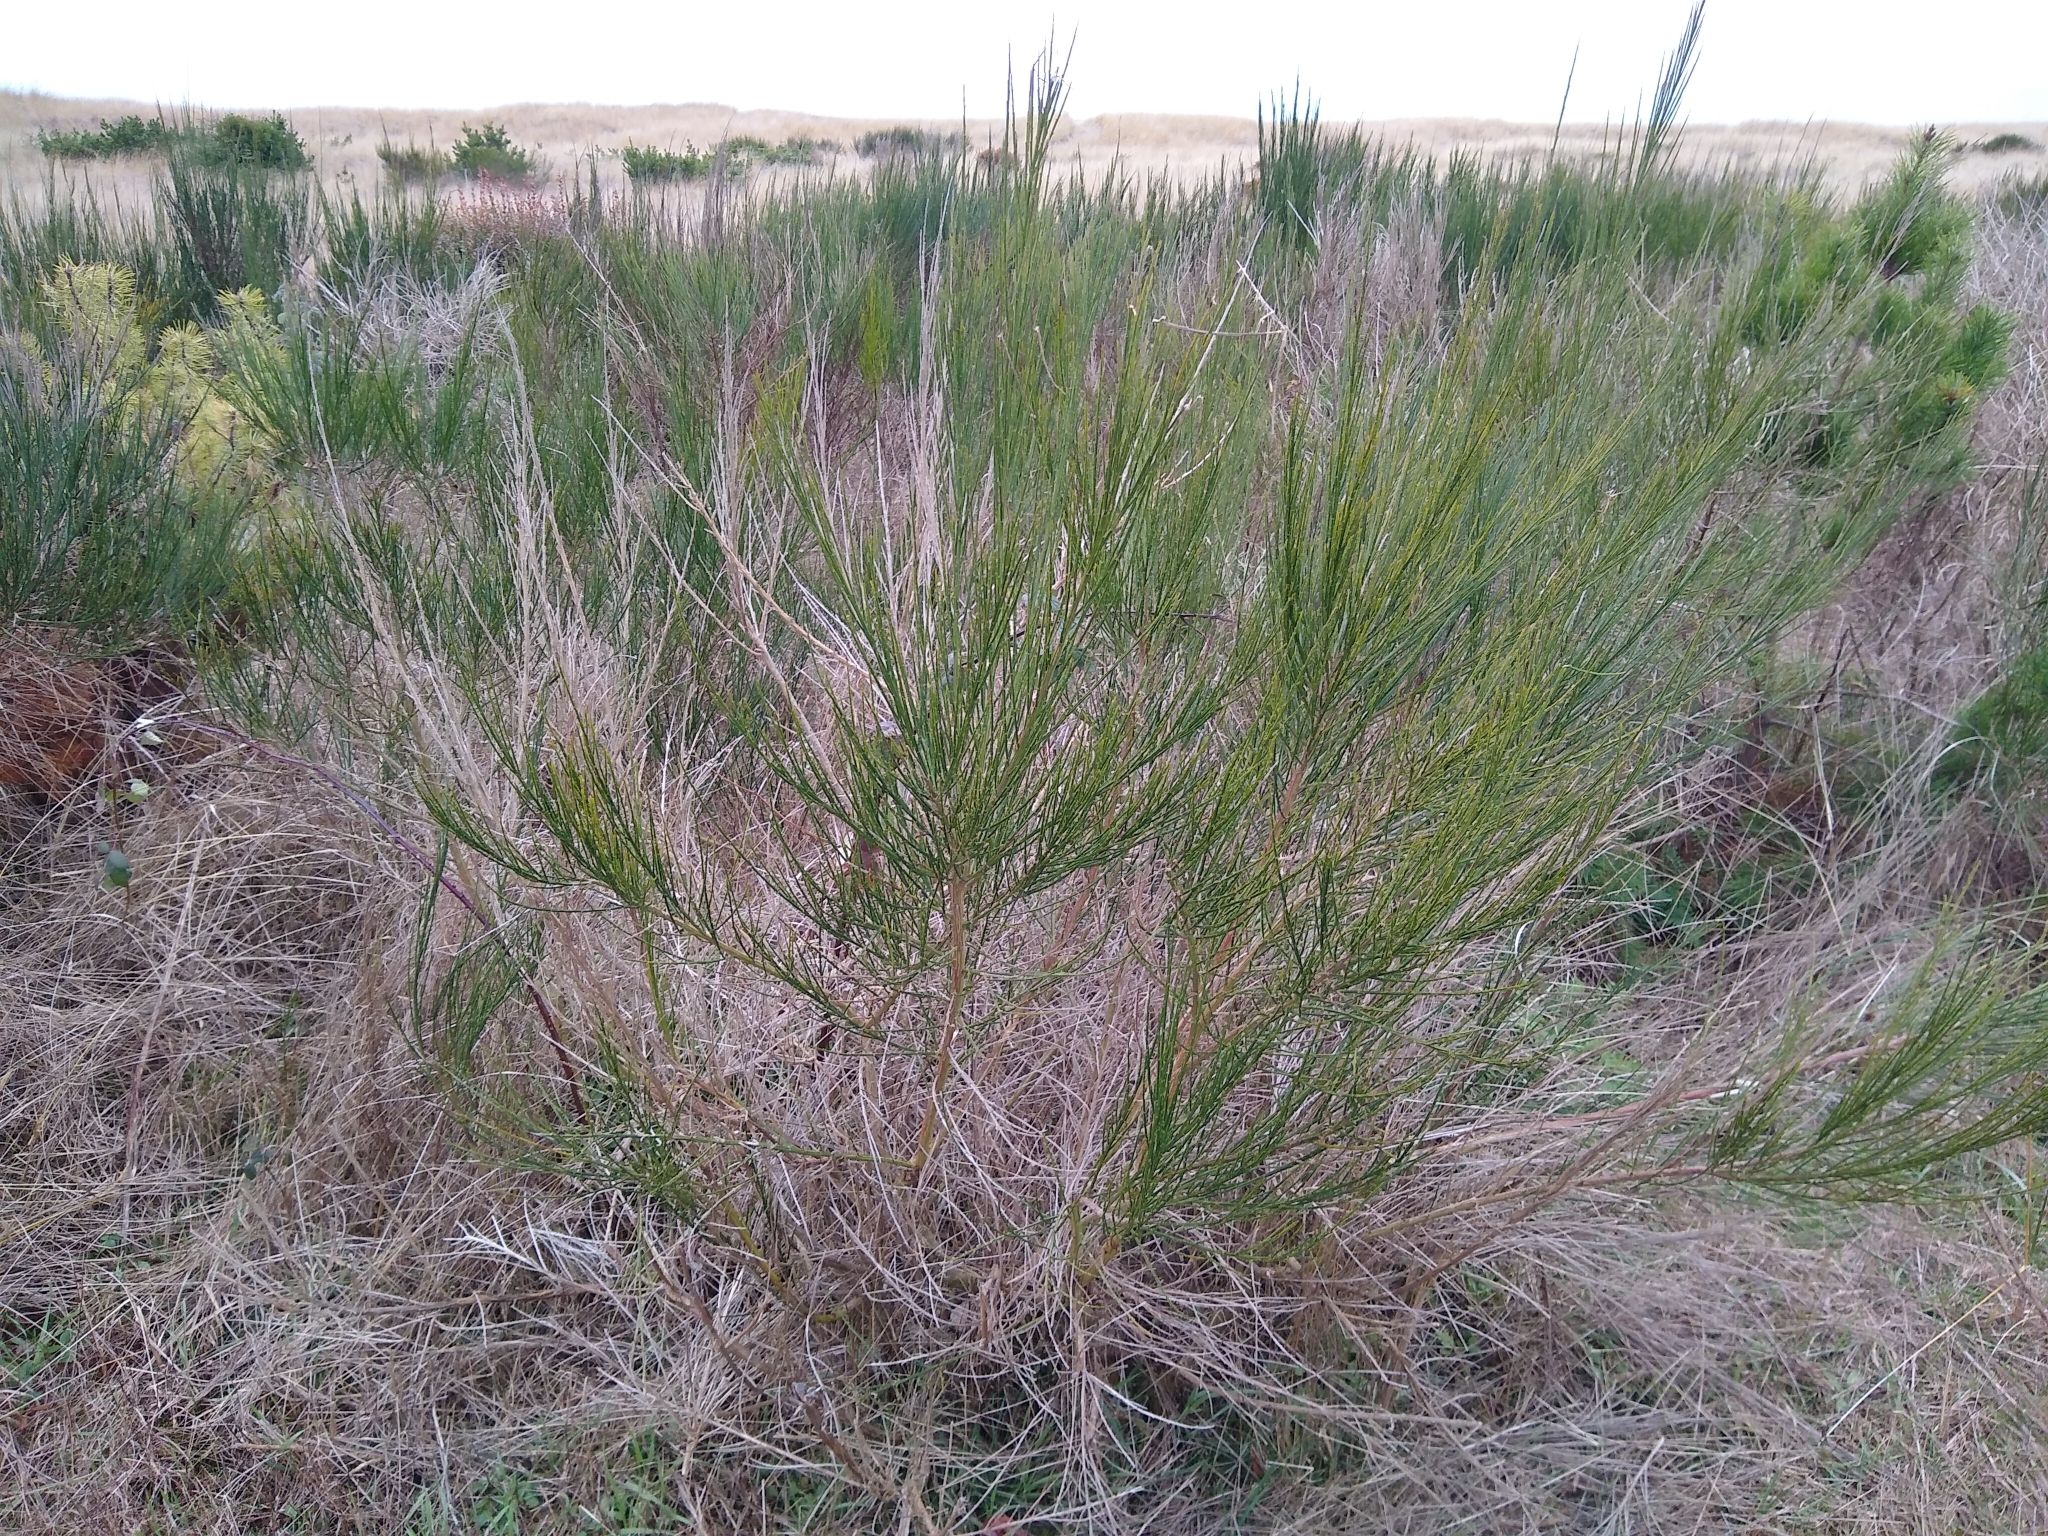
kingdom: Plantae
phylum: Tracheophyta
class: Magnoliopsida
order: Fabales
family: Fabaceae
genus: Cytisus
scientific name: Cytisus scoparius
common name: Scotch broom
